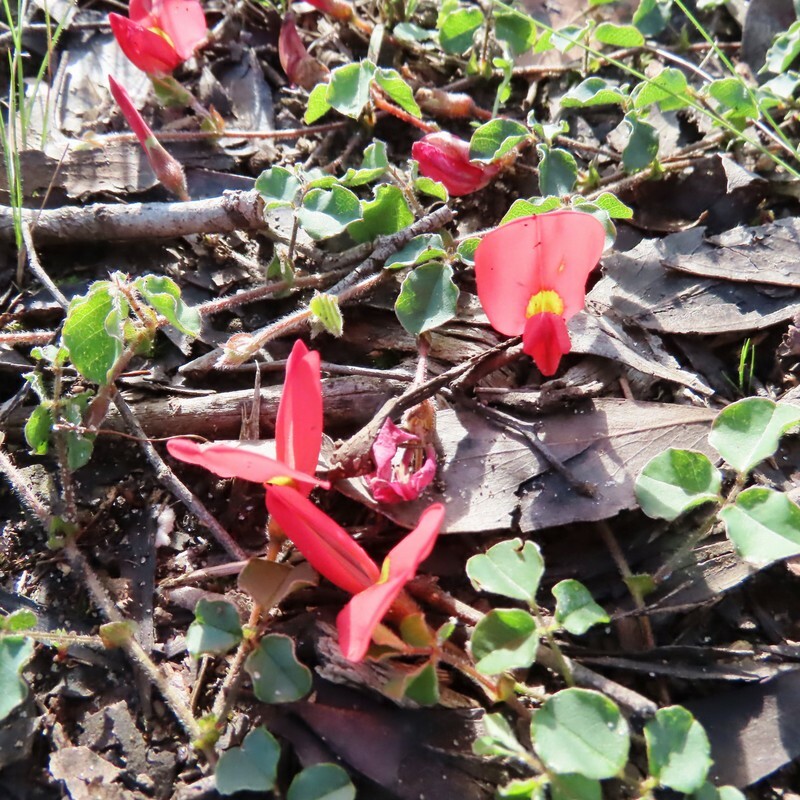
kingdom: Plantae
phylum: Tracheophyta
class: Magnoliopsida
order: Fabales
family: Fabaceae
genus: Kennedia
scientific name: Kennedia prostrata
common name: Running-postman
